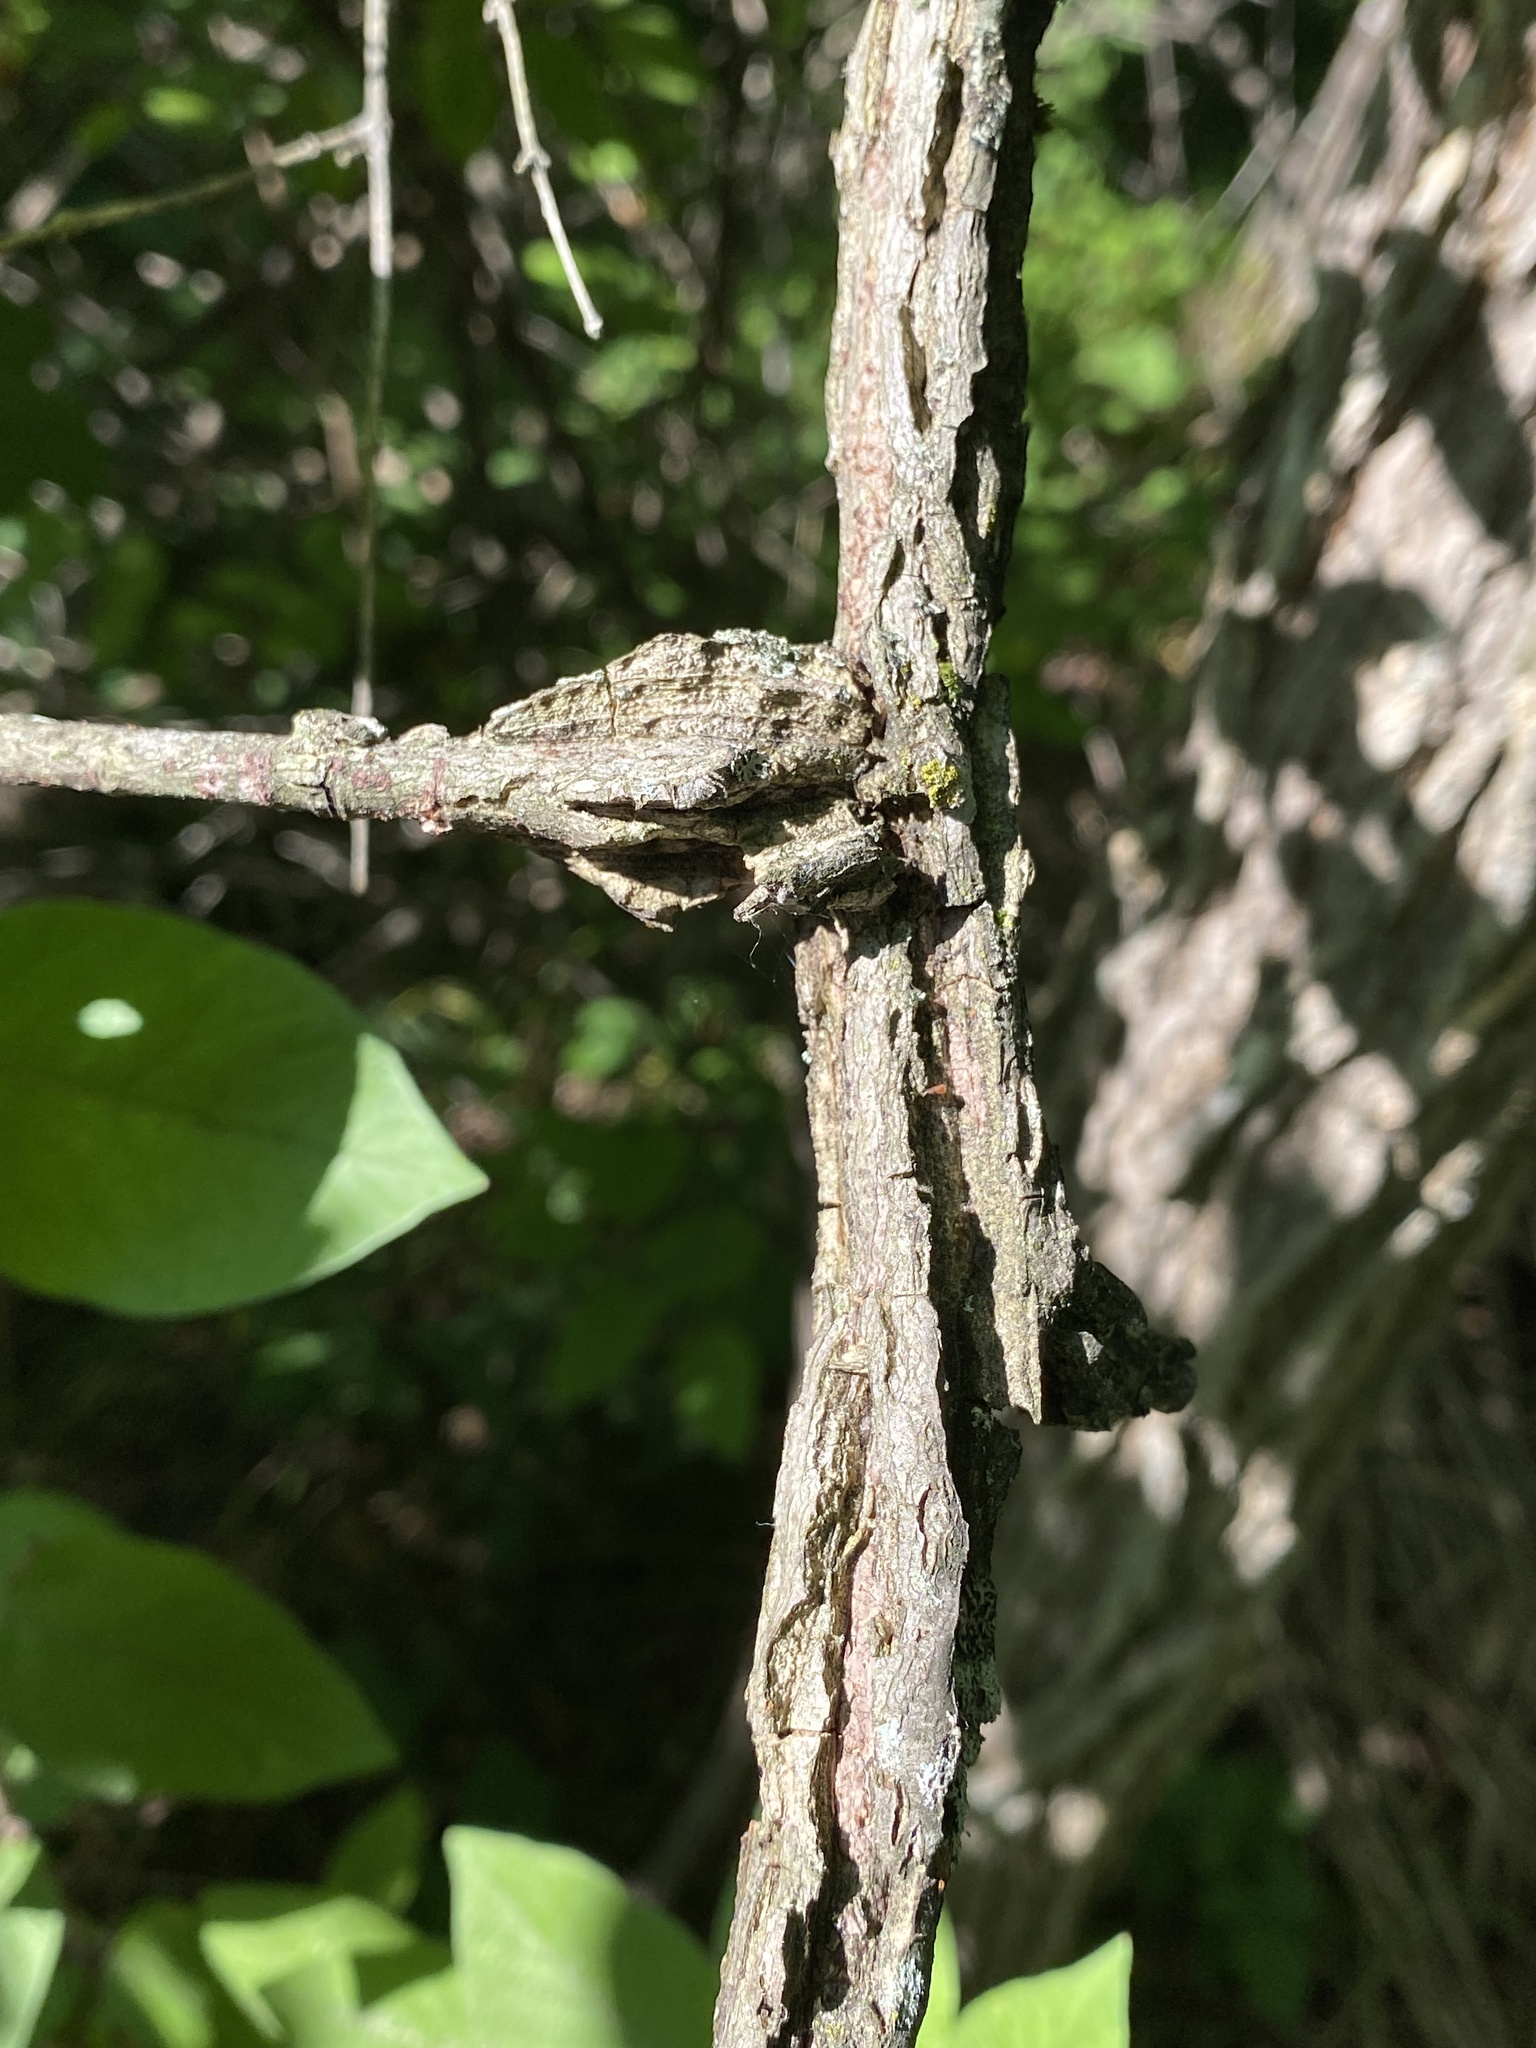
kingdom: Plantae
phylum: Tracheophyta
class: Magnoliopsida
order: Rosales
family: Ulmaceae
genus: Ulmus
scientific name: Ulmus thomasii
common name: Rock elm
